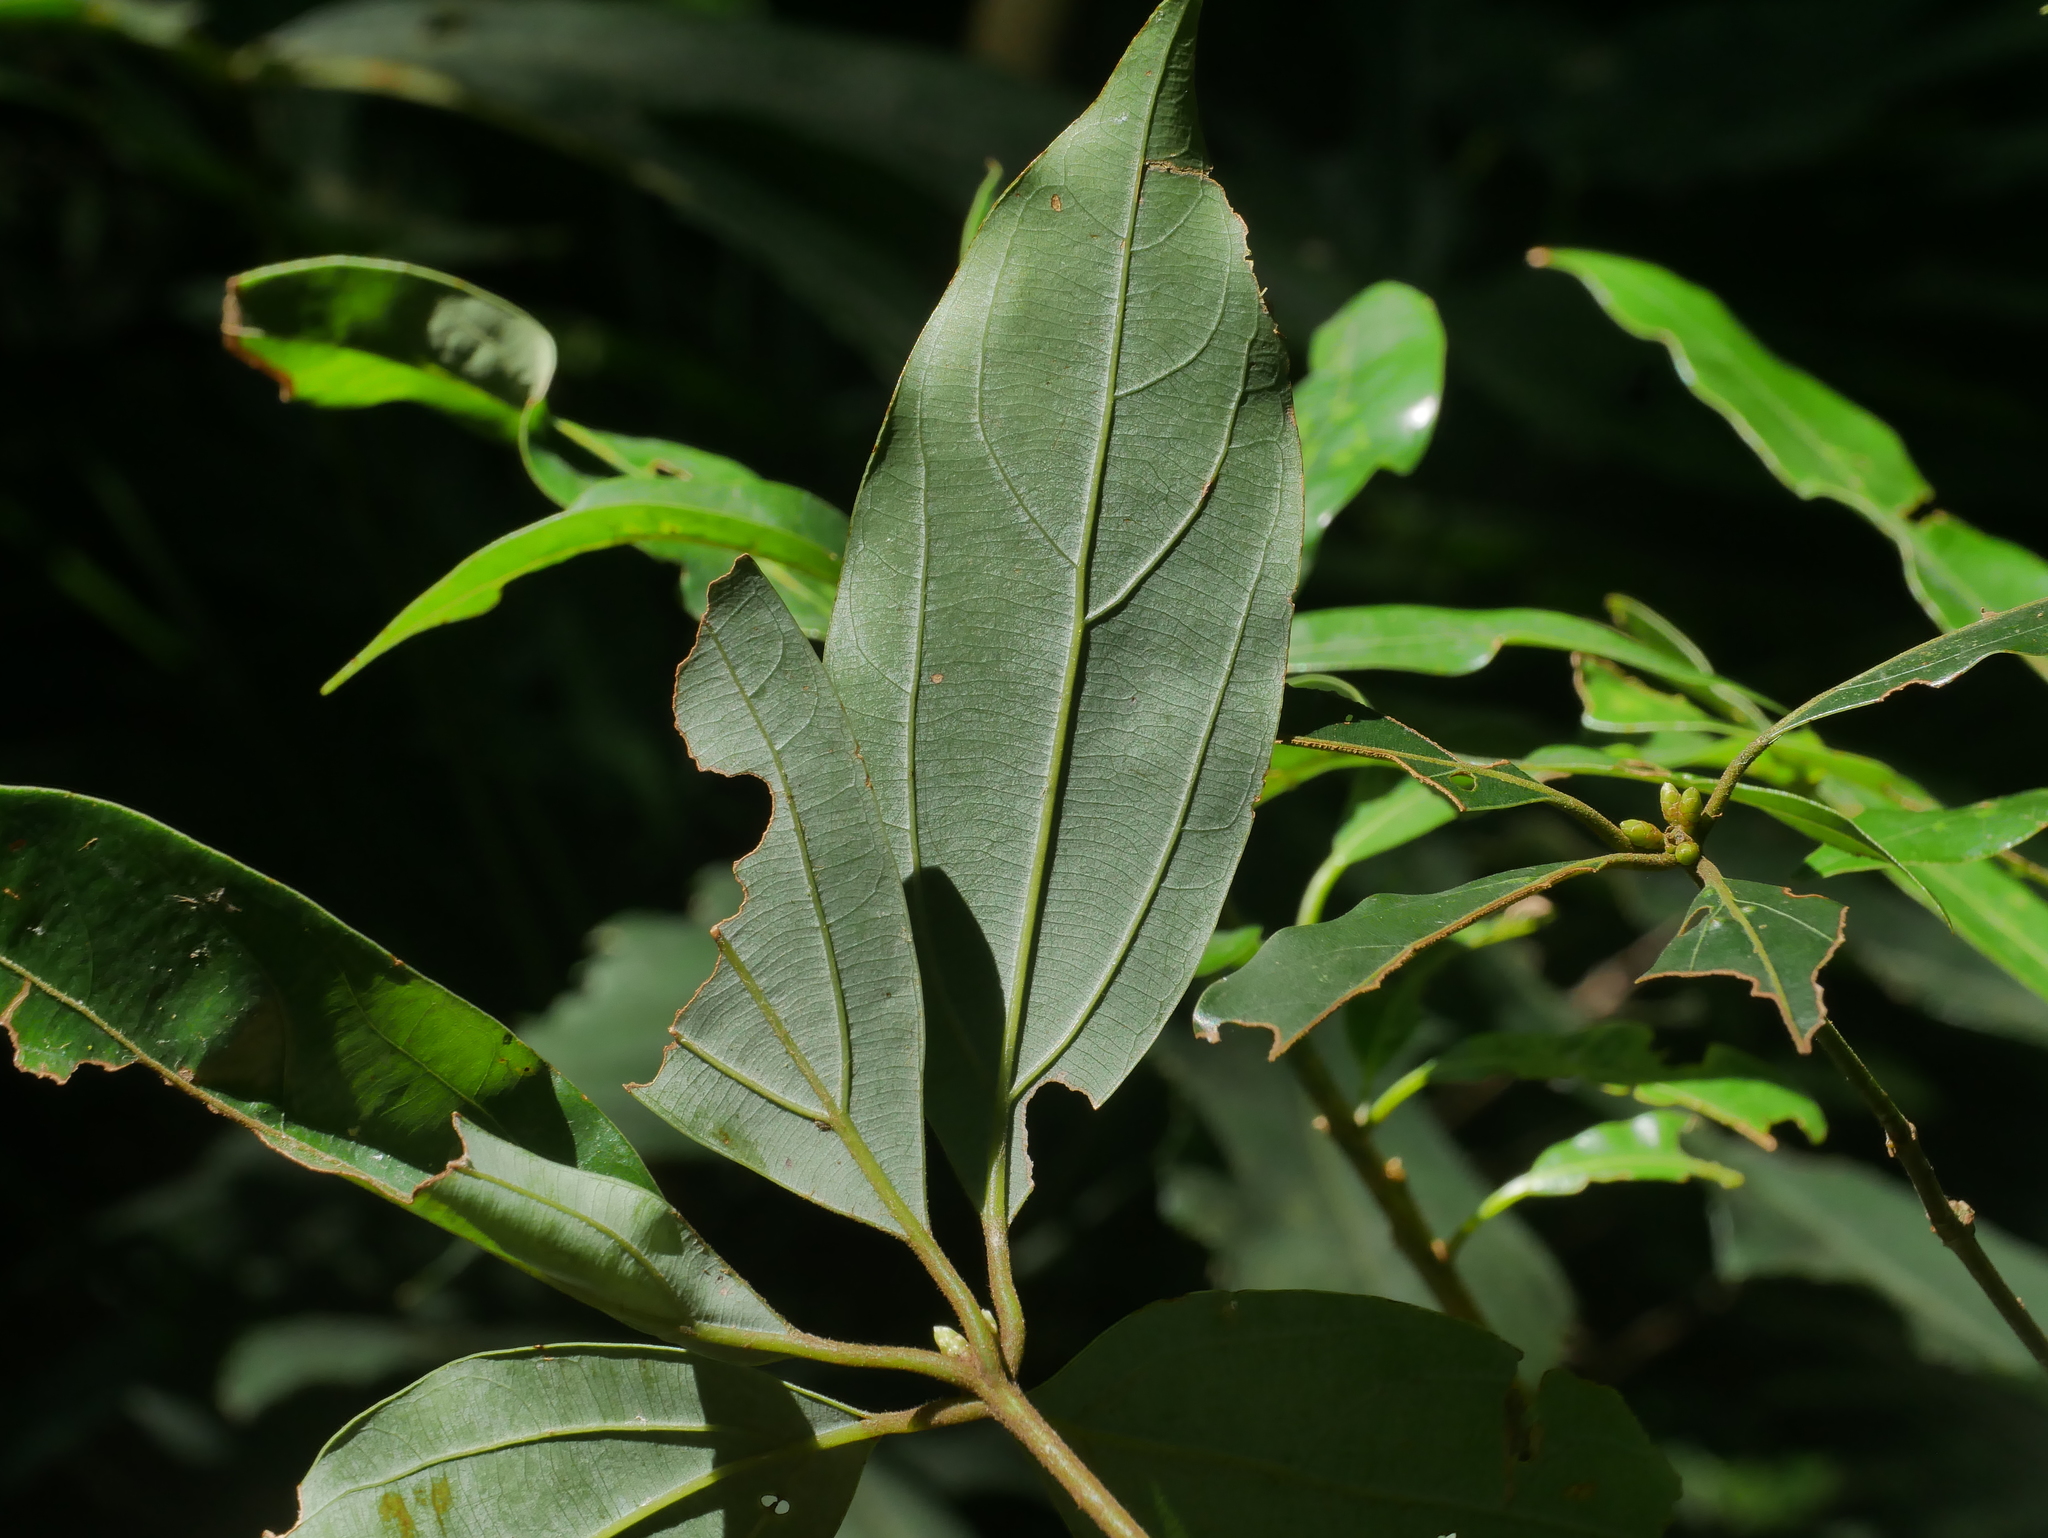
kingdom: Plantae
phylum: Tracheophyta
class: Magnoliopsida
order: Laurales
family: Lauraceae
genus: Neolitsea
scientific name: Neolitsea variabillima
